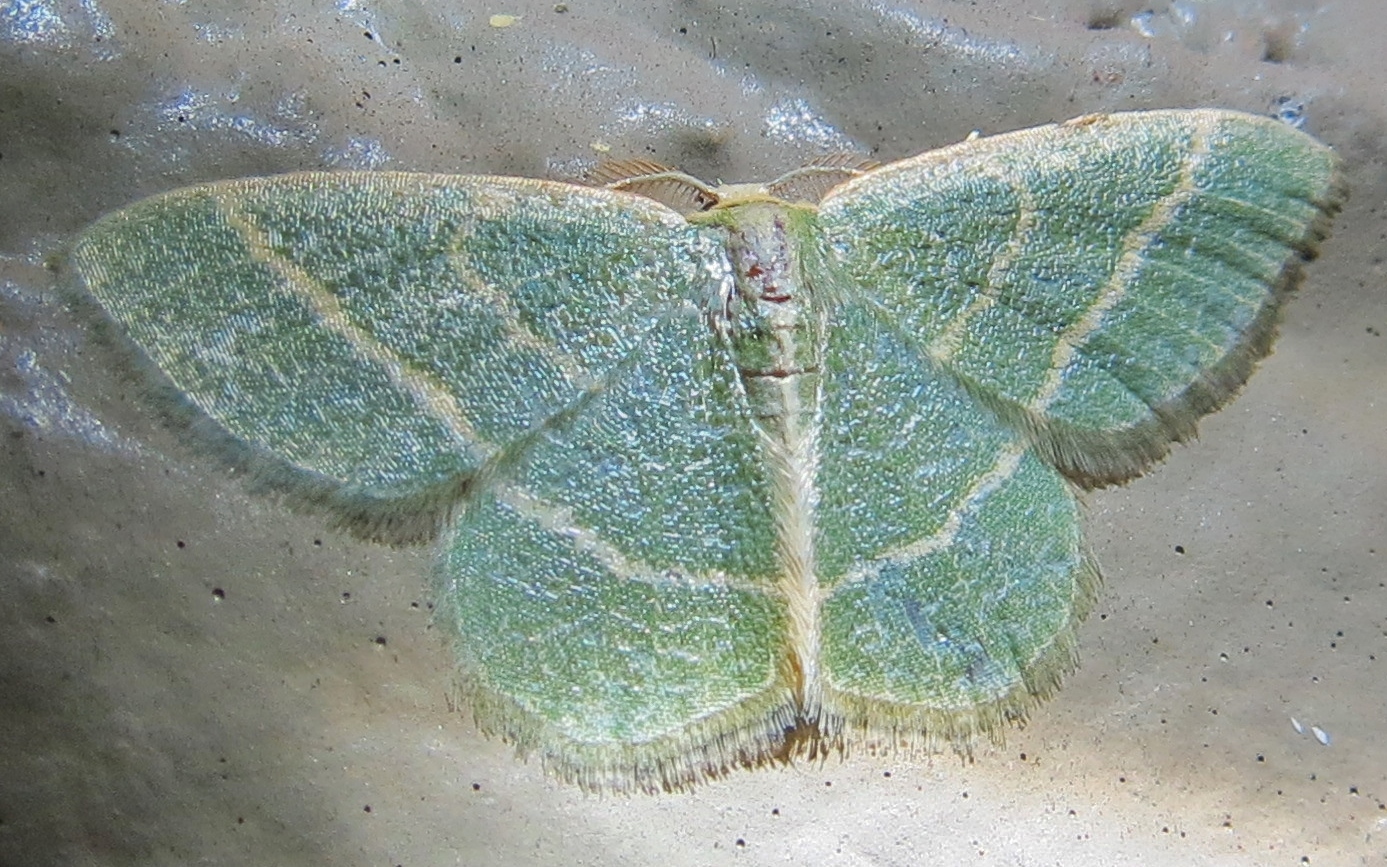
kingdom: Animalia
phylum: Arthropoda
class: Insecta
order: Lepidoptera
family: Geometridae
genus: Chlorochlamys
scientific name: Chlorochlamys chloroleucaria
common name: Blackberry looper
